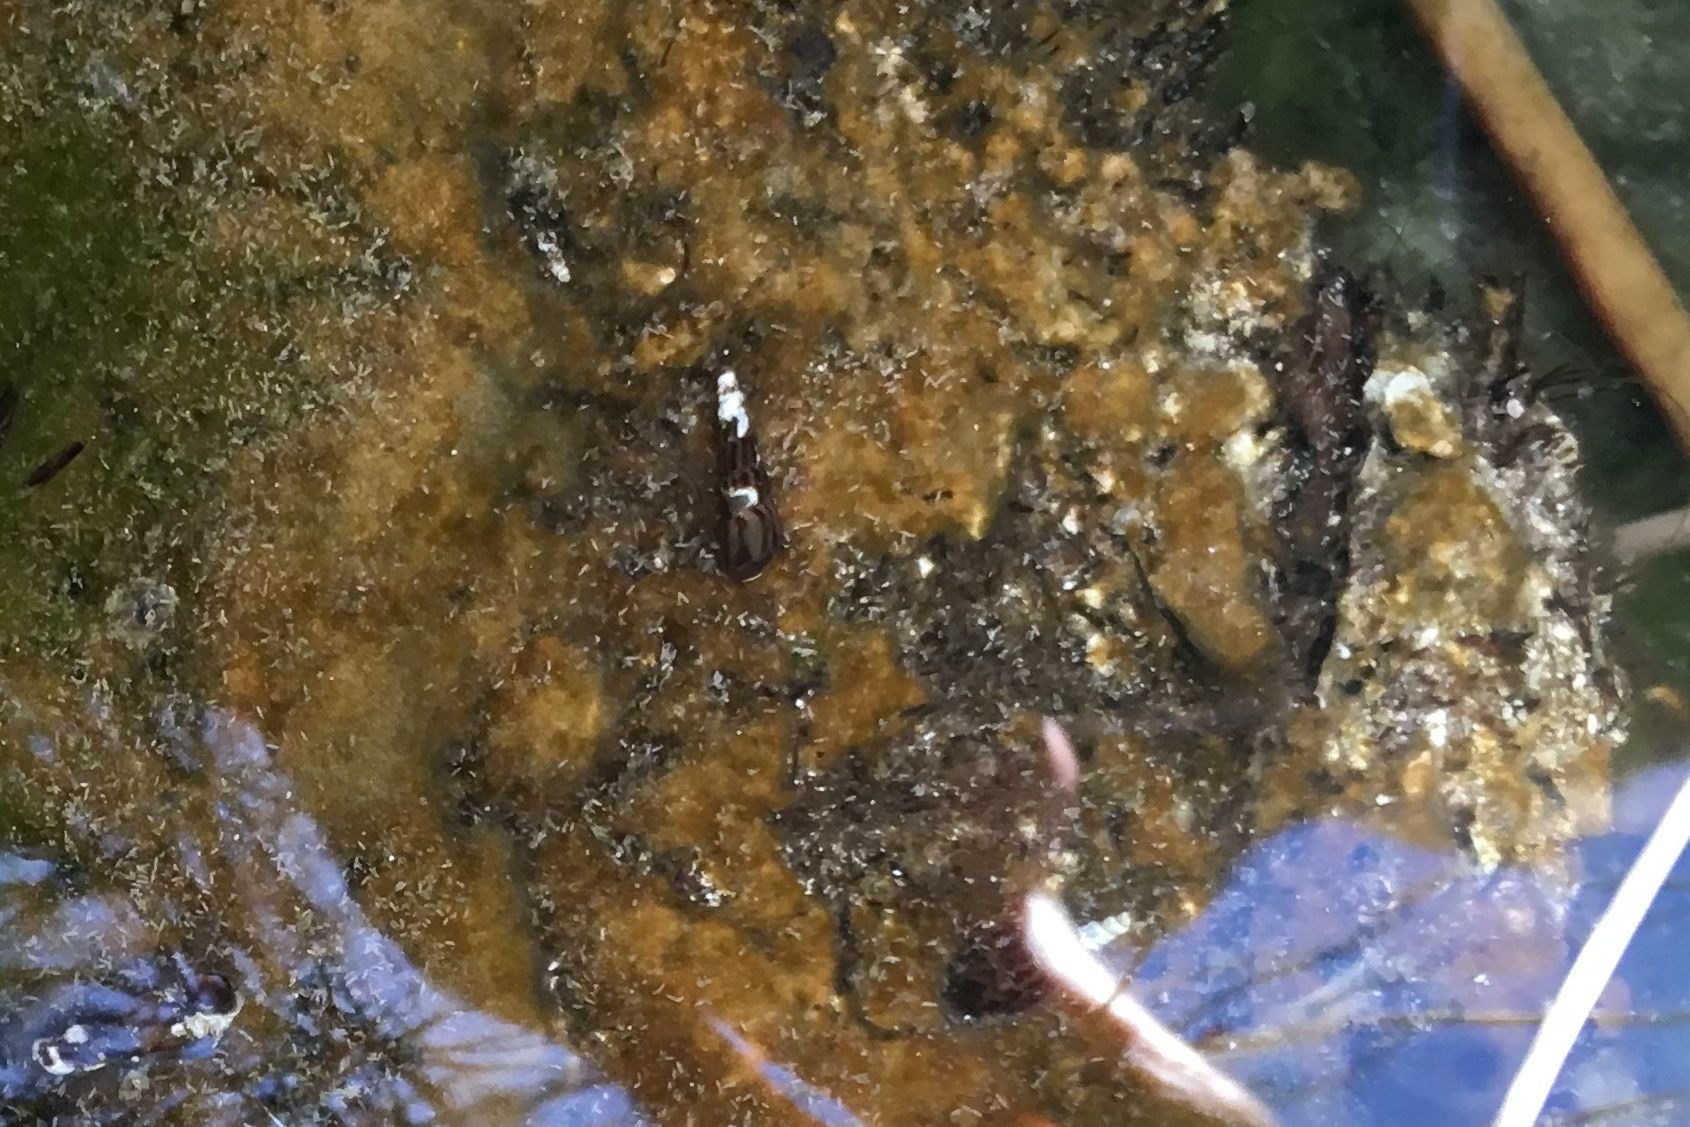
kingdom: Animalia
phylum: Mollusca
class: Gastropoda
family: Thiaridae
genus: Melanoides
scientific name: Melanoides tuberculata
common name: Red-rim melania
